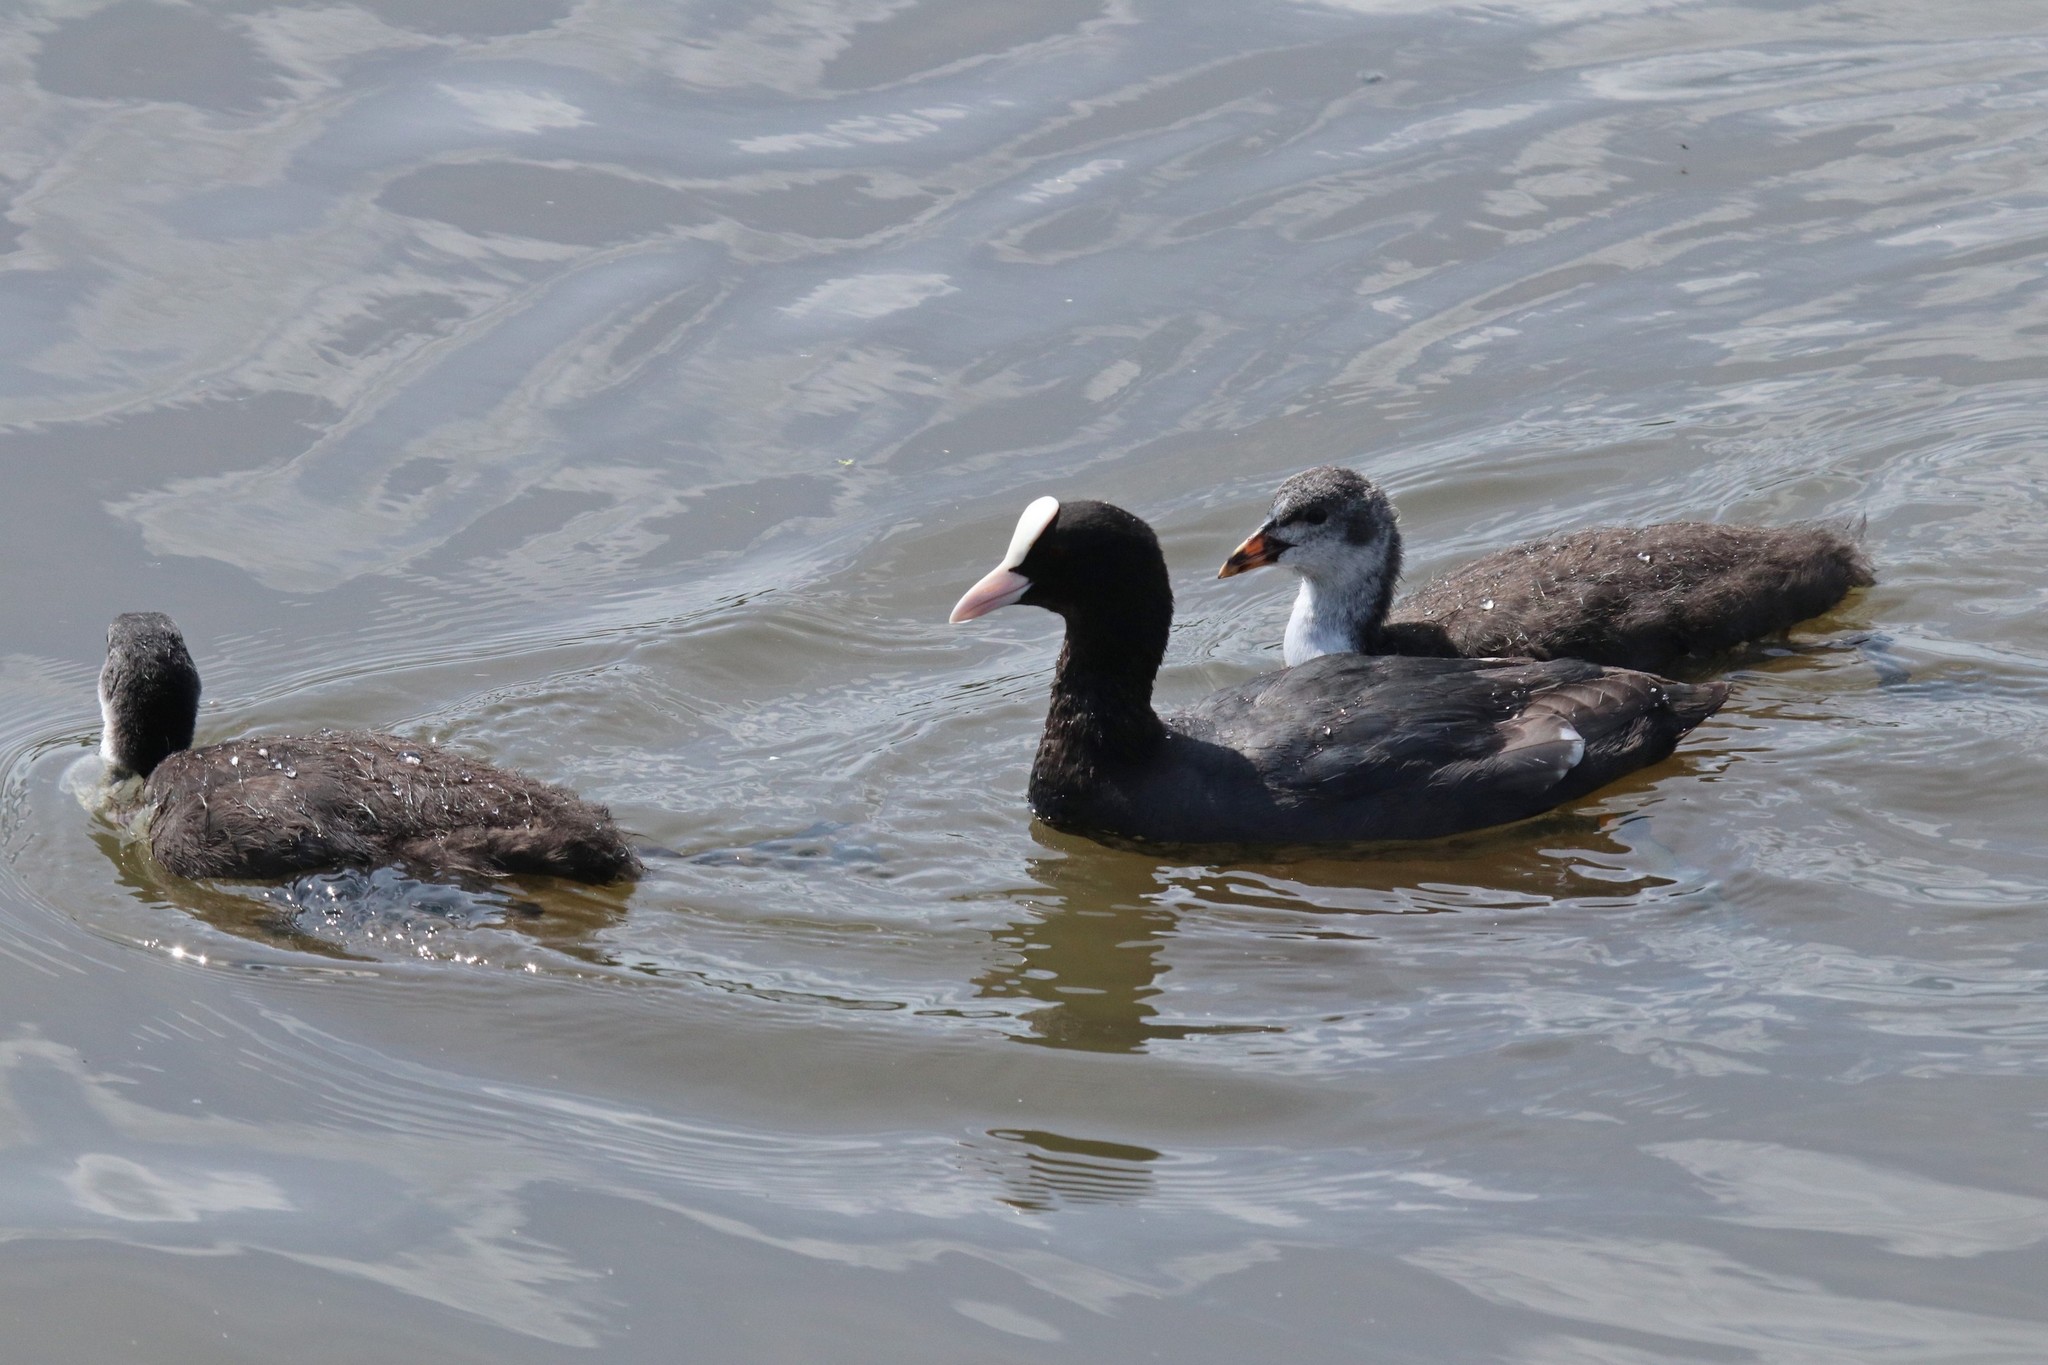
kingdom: Animalia
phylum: Chordata
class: Aves
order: Gruiformes
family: Rallidae
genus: Fulica
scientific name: Fulica atra
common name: Eurasian coot
